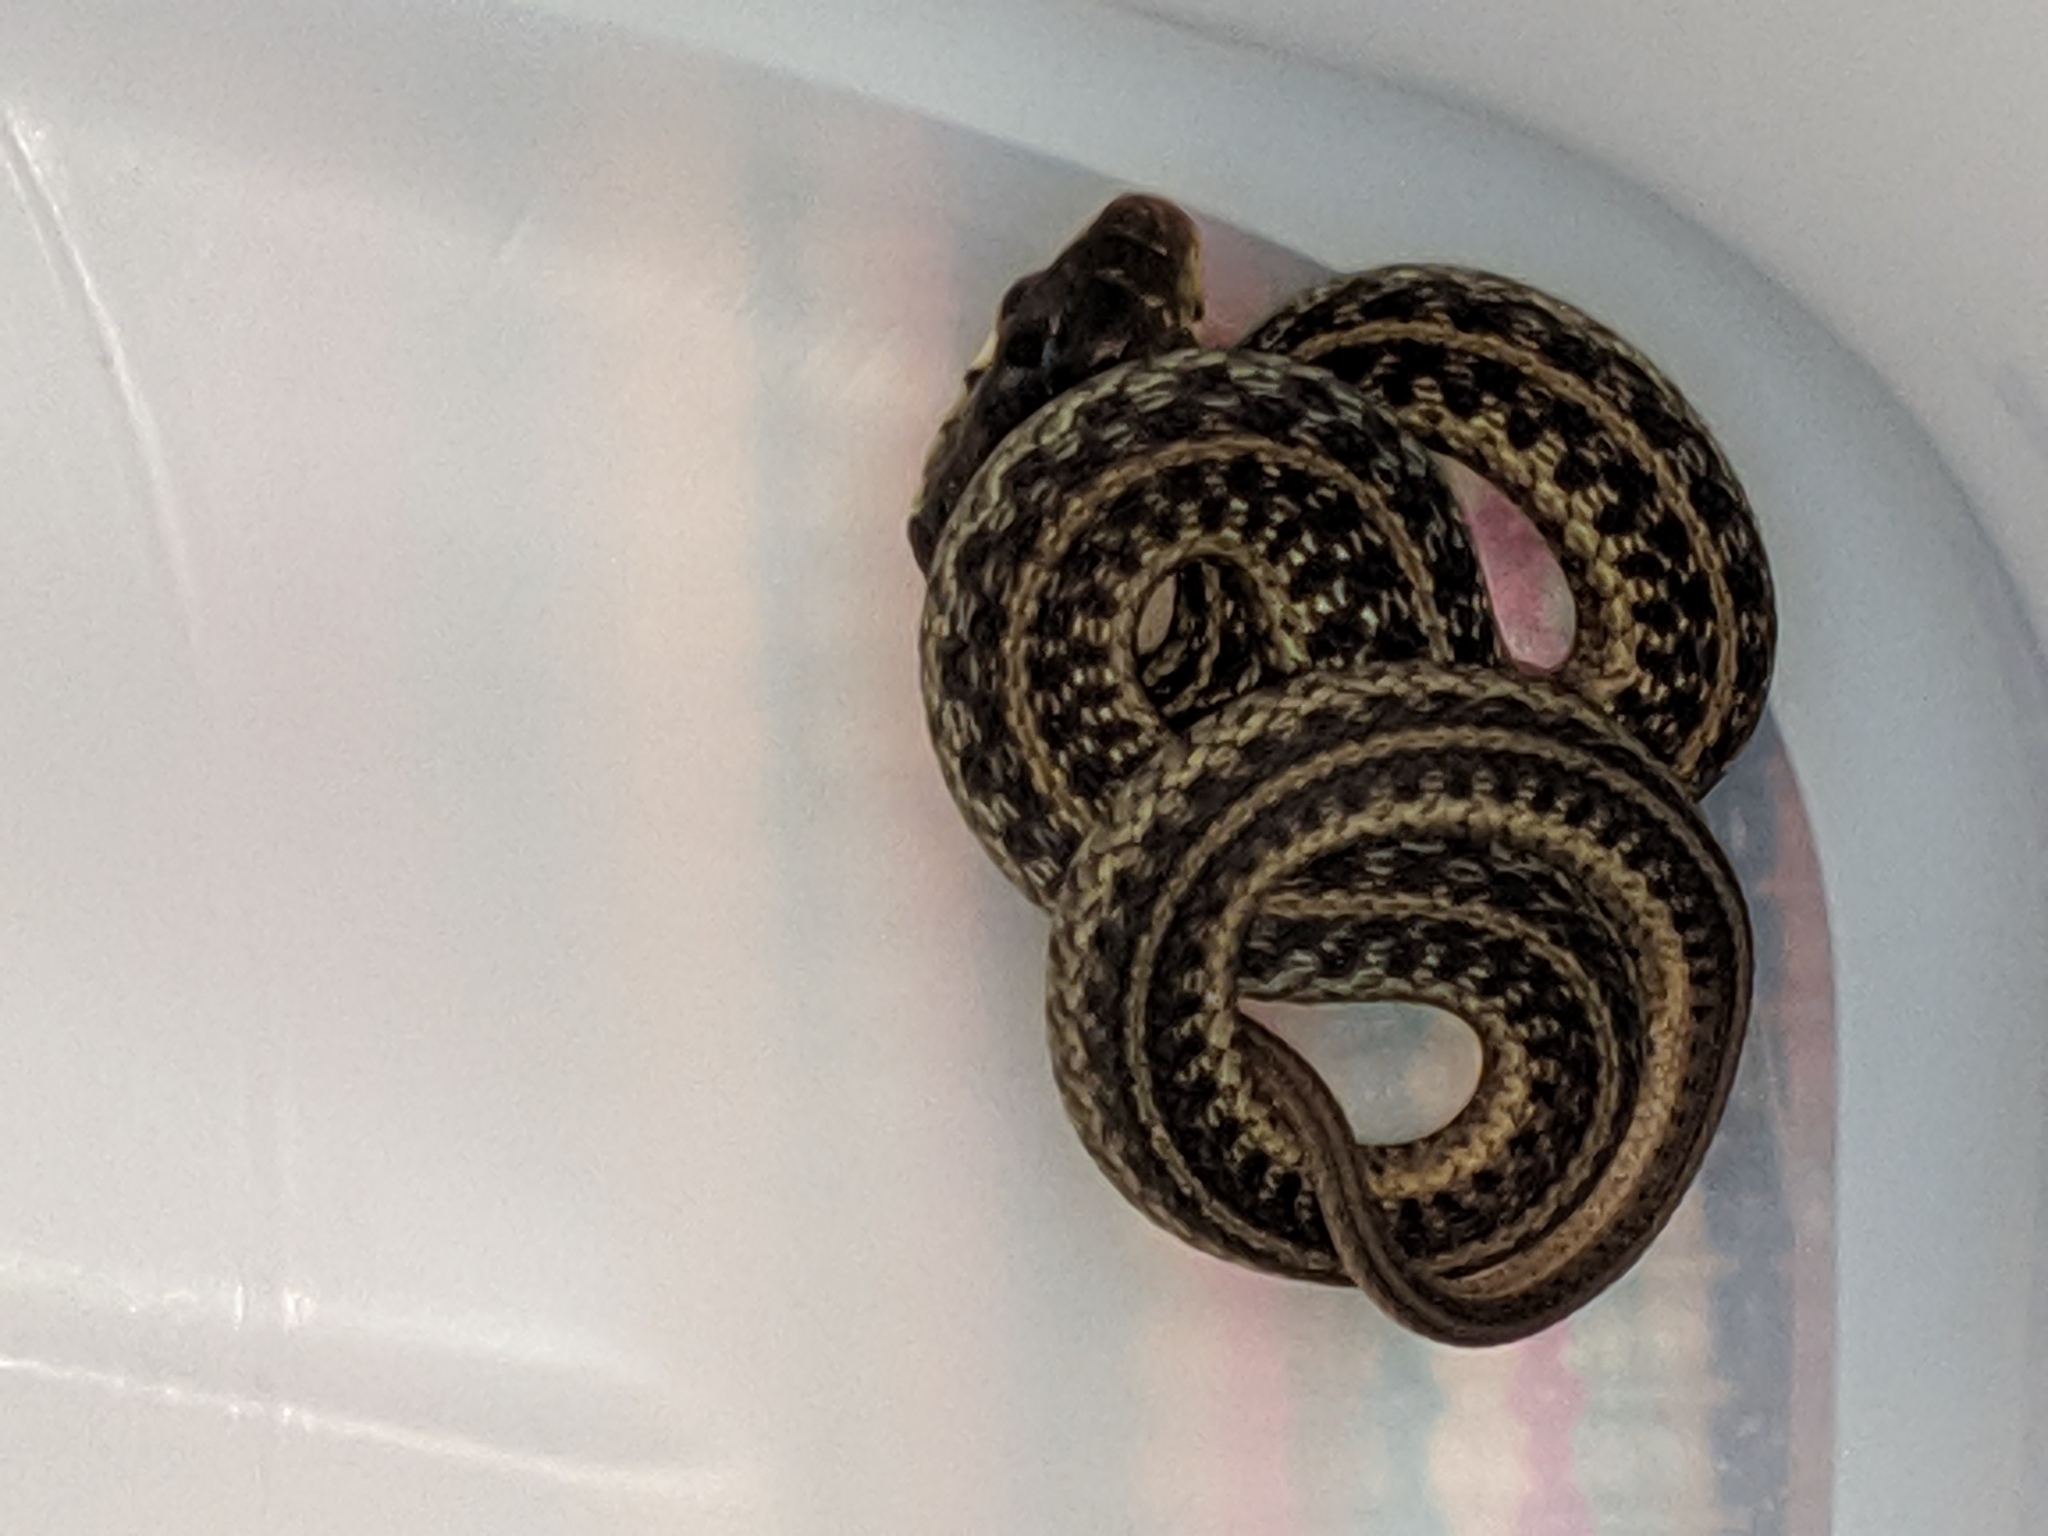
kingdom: Animalia
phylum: Chordata
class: Squamata
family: Colubridae
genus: Thamnophis
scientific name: Thamnophis sirtalis
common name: Common garter snake
